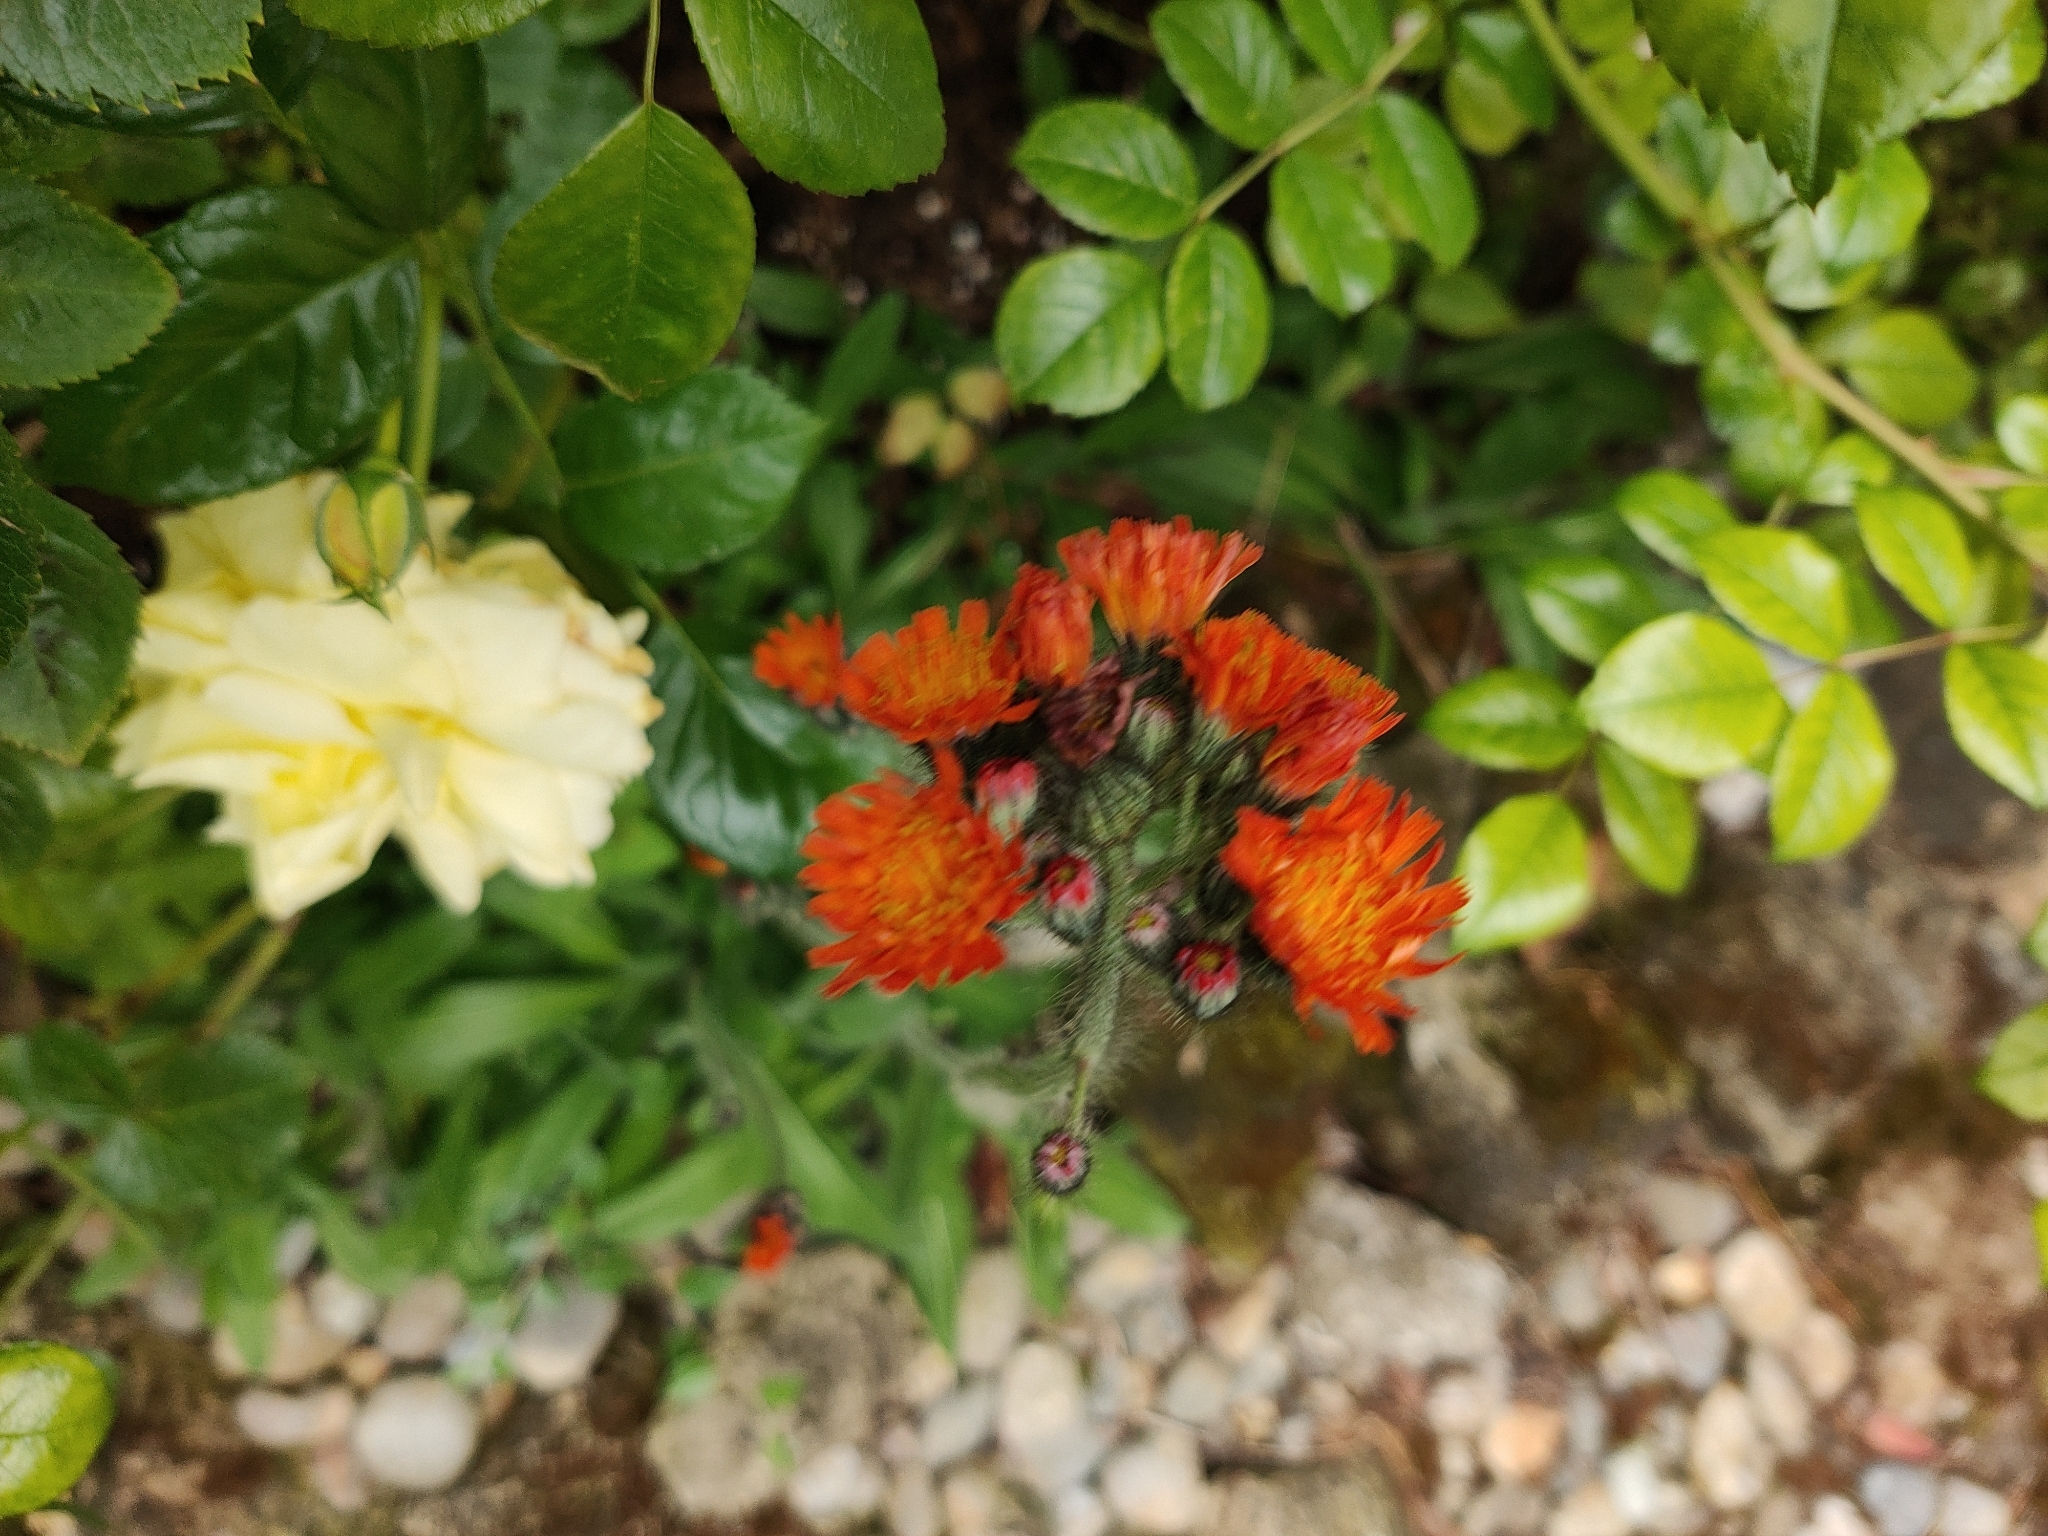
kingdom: Plantae
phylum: Tracheophyta
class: Magnoliopsida
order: Asterales
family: Asteraceae
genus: Pilosella
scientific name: Pilosella aurantiaca
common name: Fox-and-cubs
